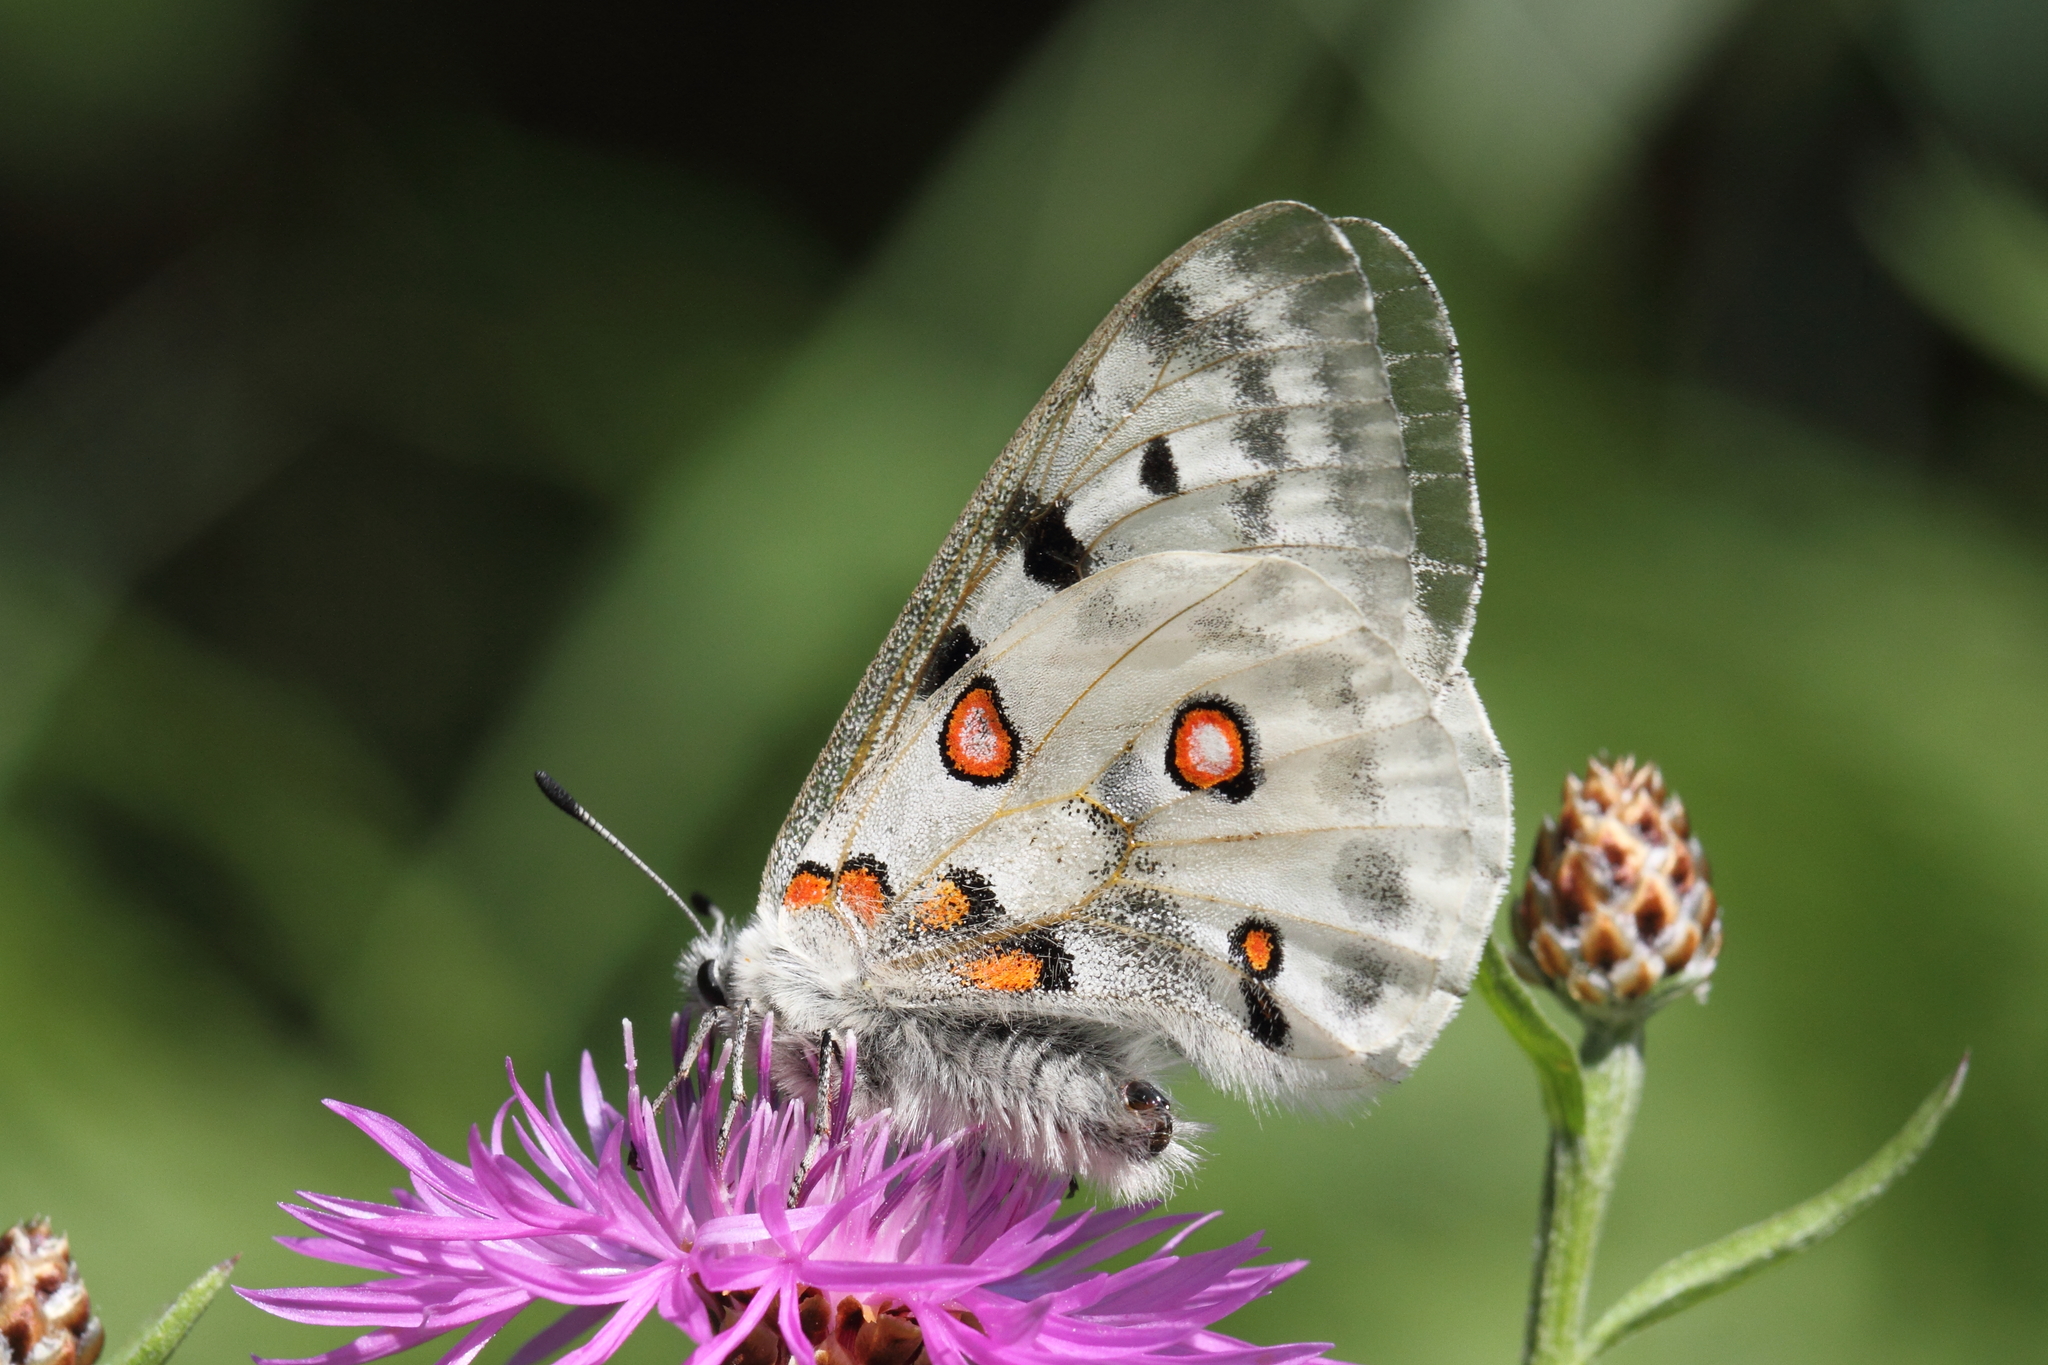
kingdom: Animalia
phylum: Arthropoda
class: Insecta
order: Lepidoptera
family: Papilionidae
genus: Parnassius
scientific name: Parnassius apollo
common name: Apollo
